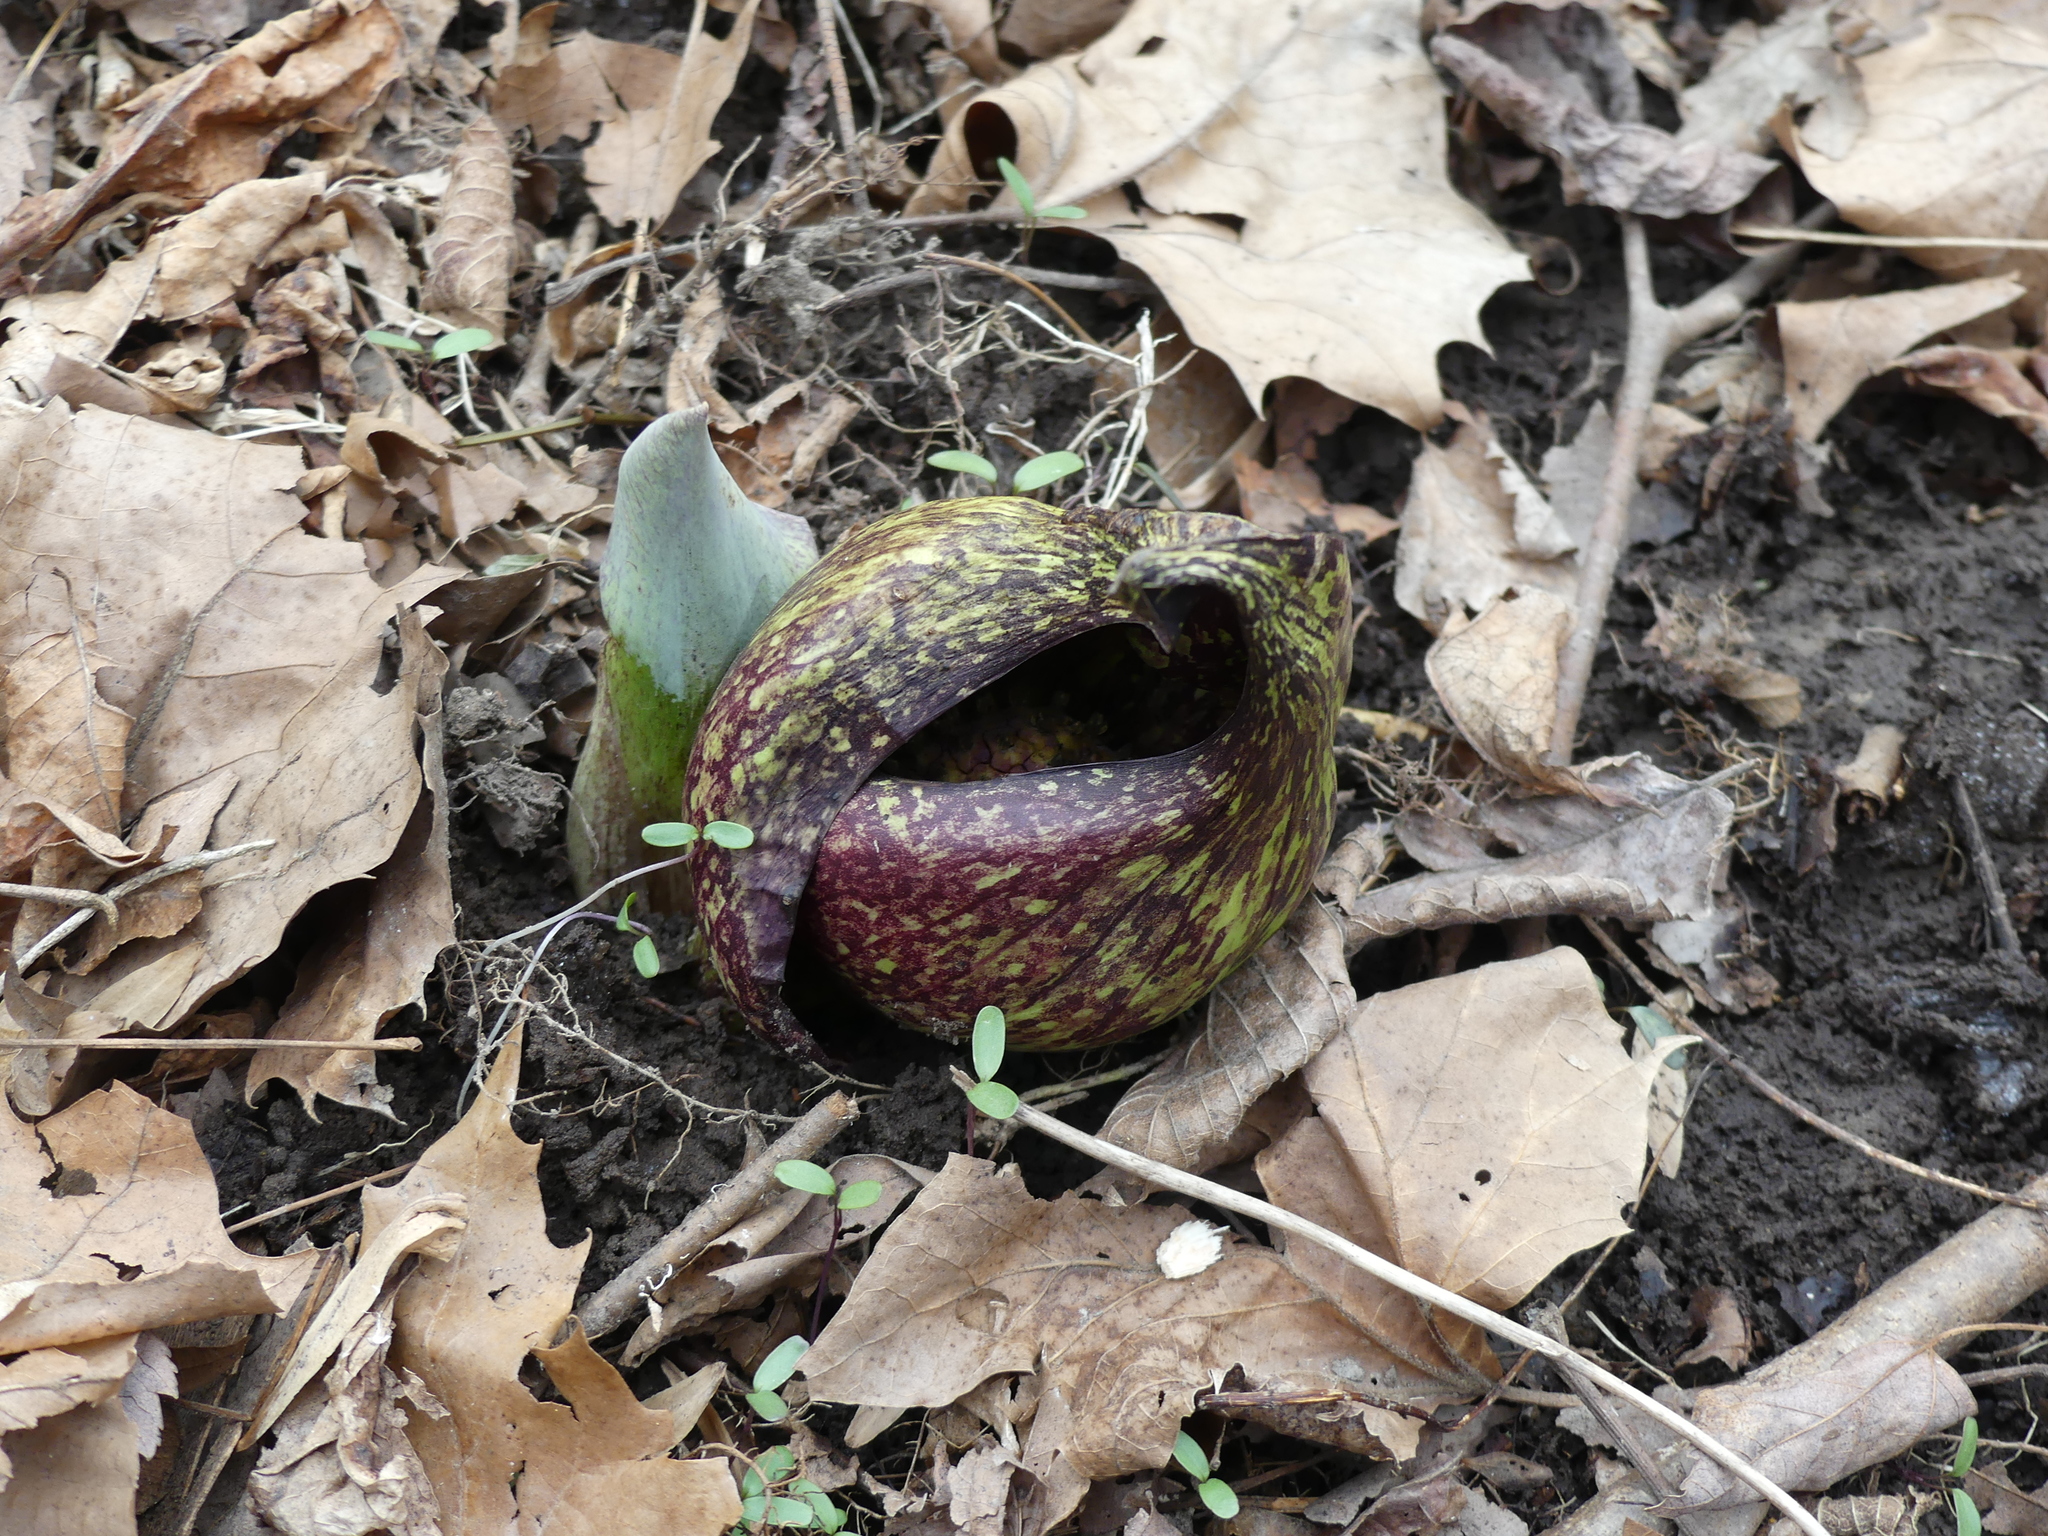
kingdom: Plantae
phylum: Tracheophyta
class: Liliopsida
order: Alismatales
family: Araceae
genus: Symplocarpus
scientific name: Symplocarpus foetidus
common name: Eastern skunk cabbage
